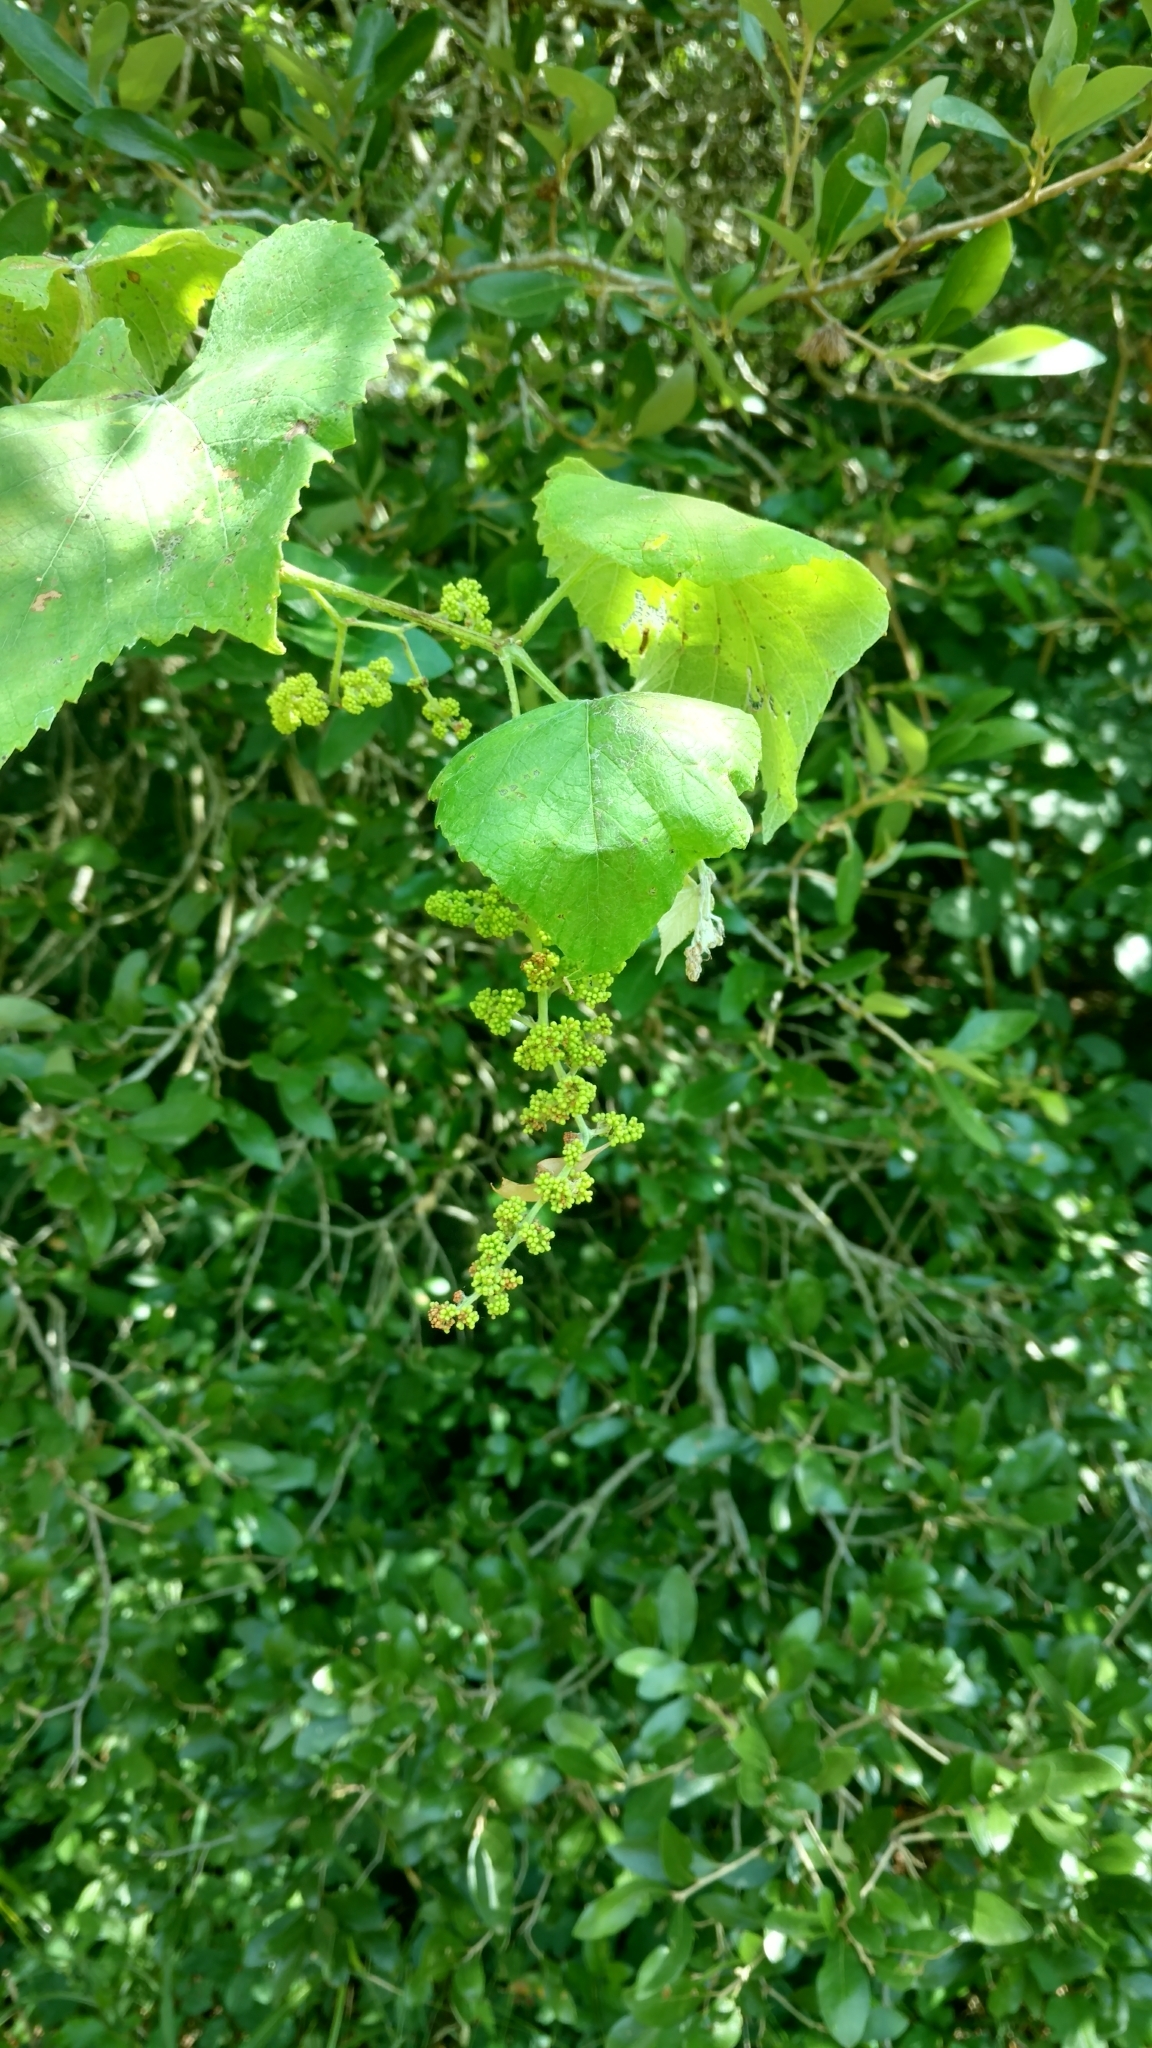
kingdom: Plantae
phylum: Tracheophyta
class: Magnoliopsida
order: Vitales
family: Vitaceae
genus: Vitis
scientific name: Vitis cinerea
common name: Ashy grape
